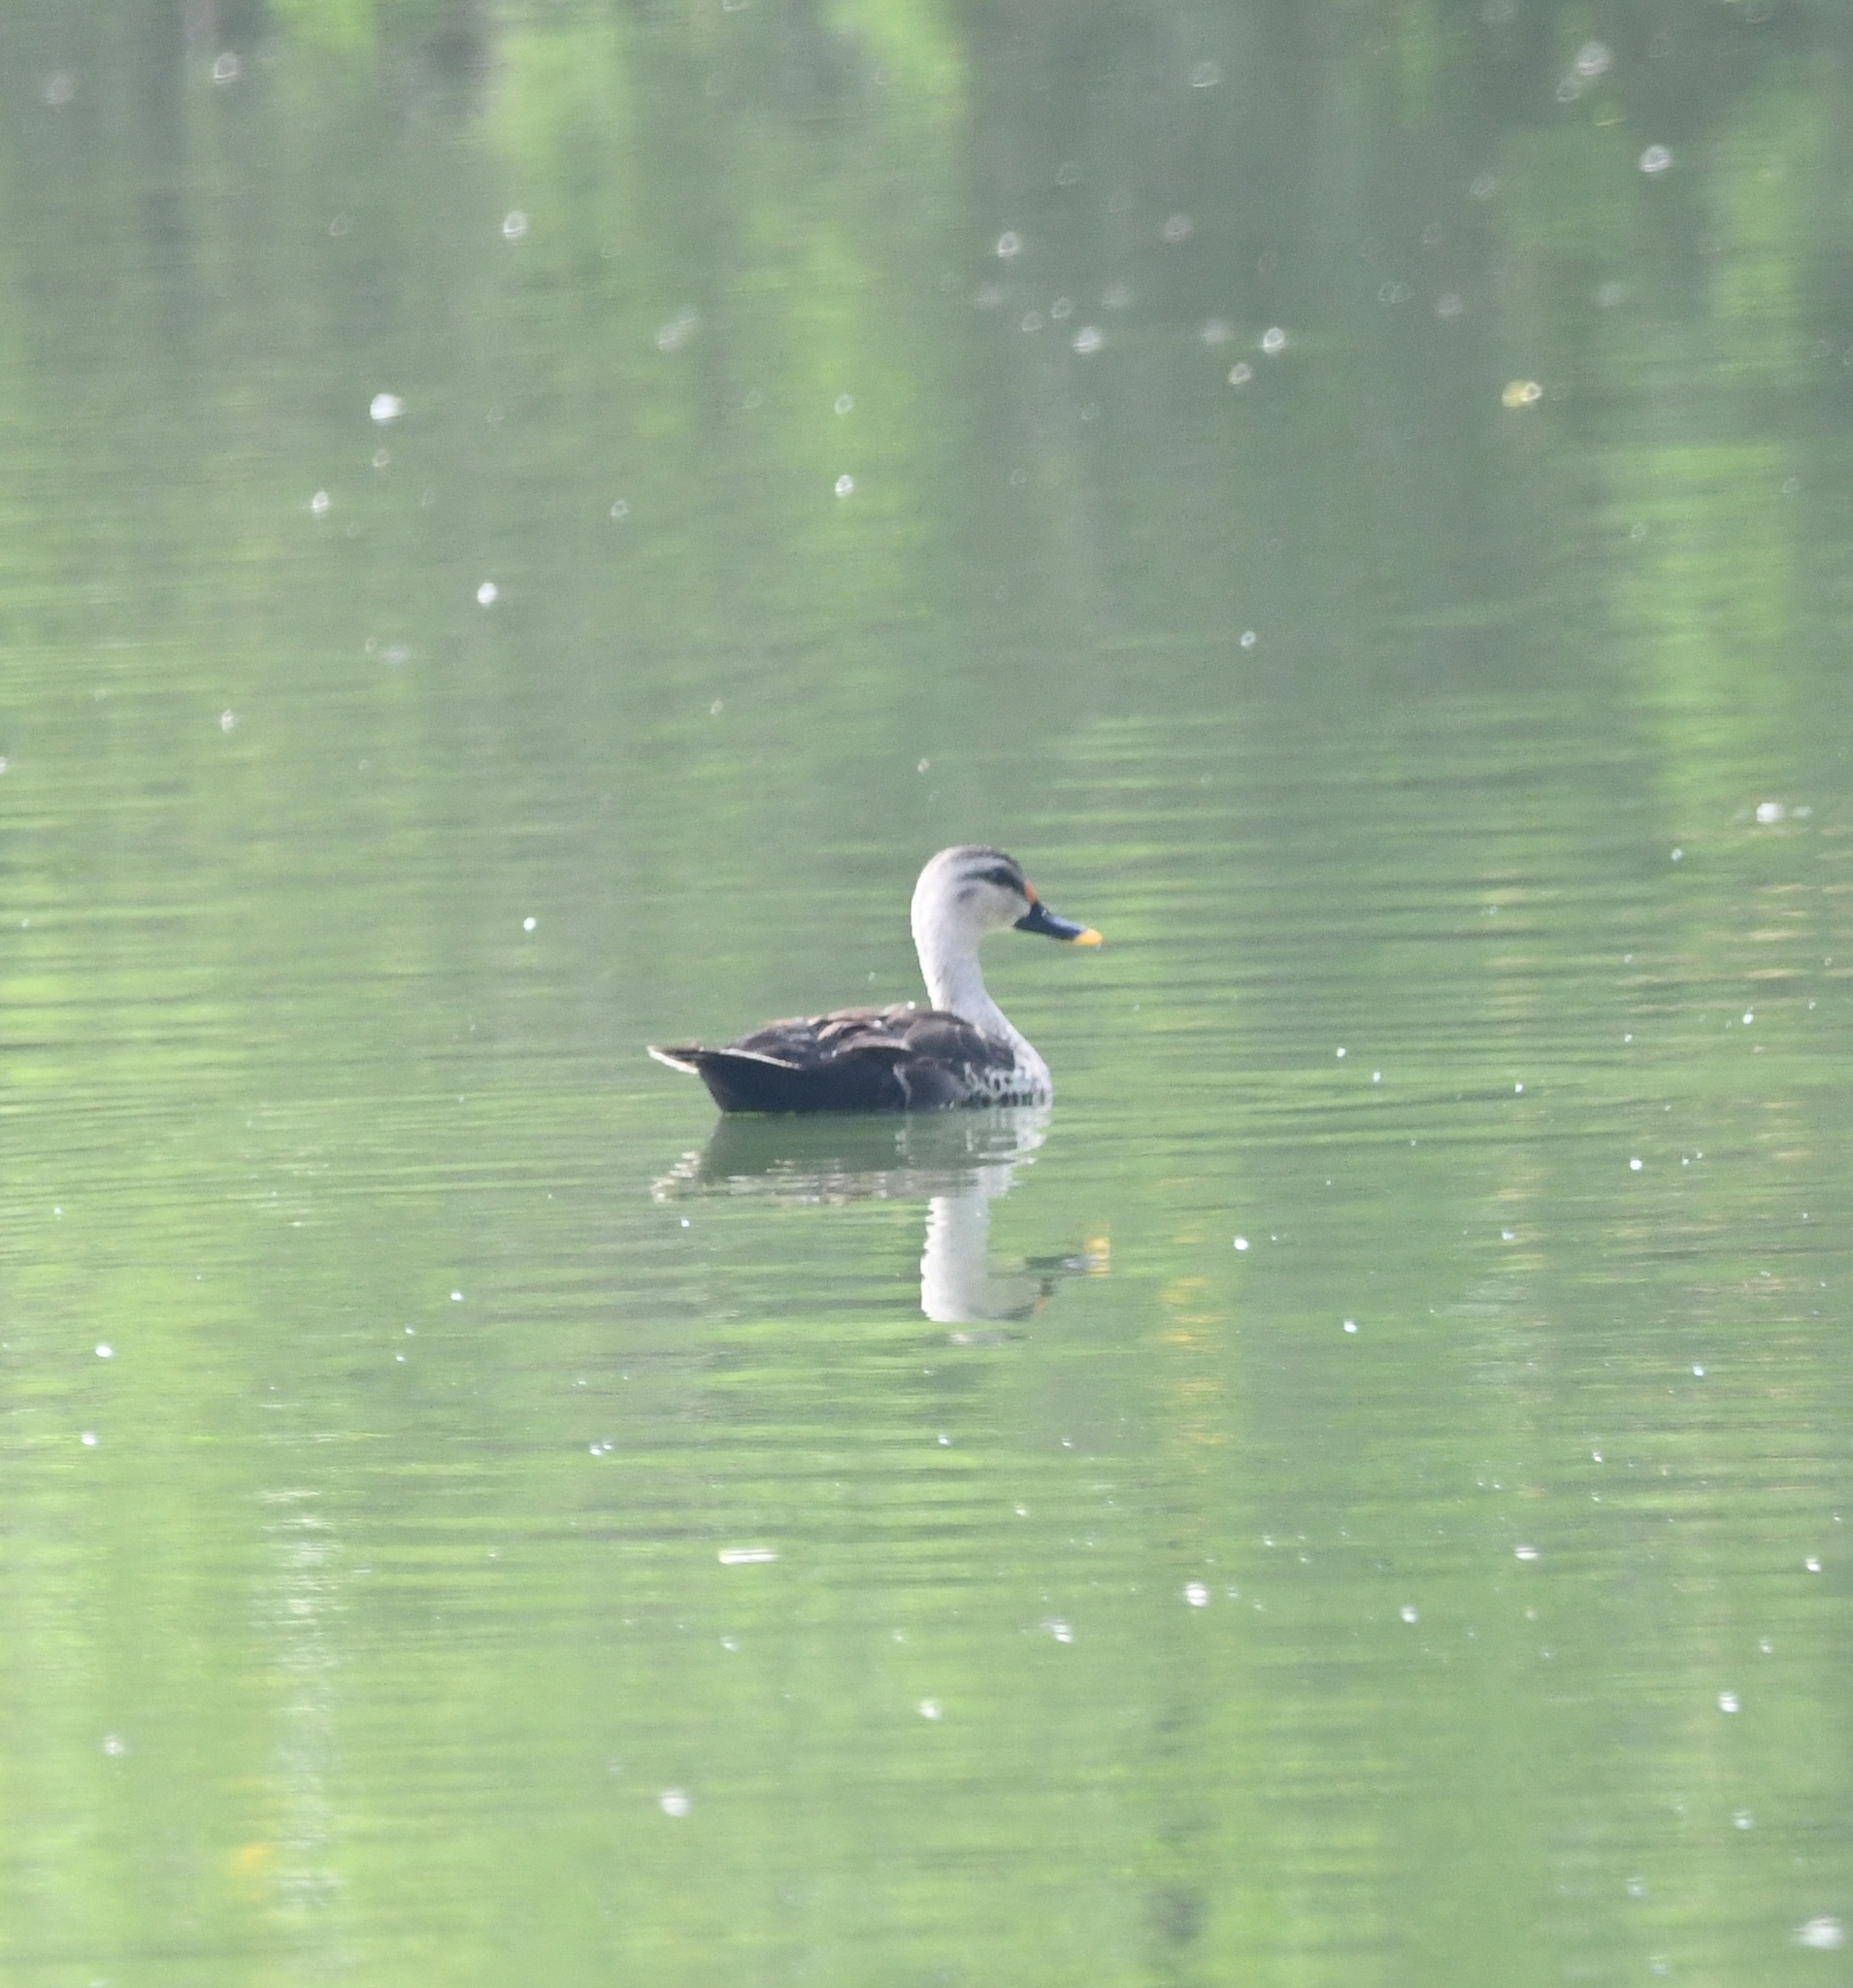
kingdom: Animalia
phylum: Chordata
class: Aves
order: Anseriformes
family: Anatidae
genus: Anas
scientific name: Anas poecilorhyncha
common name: Indian spot-billed duck
